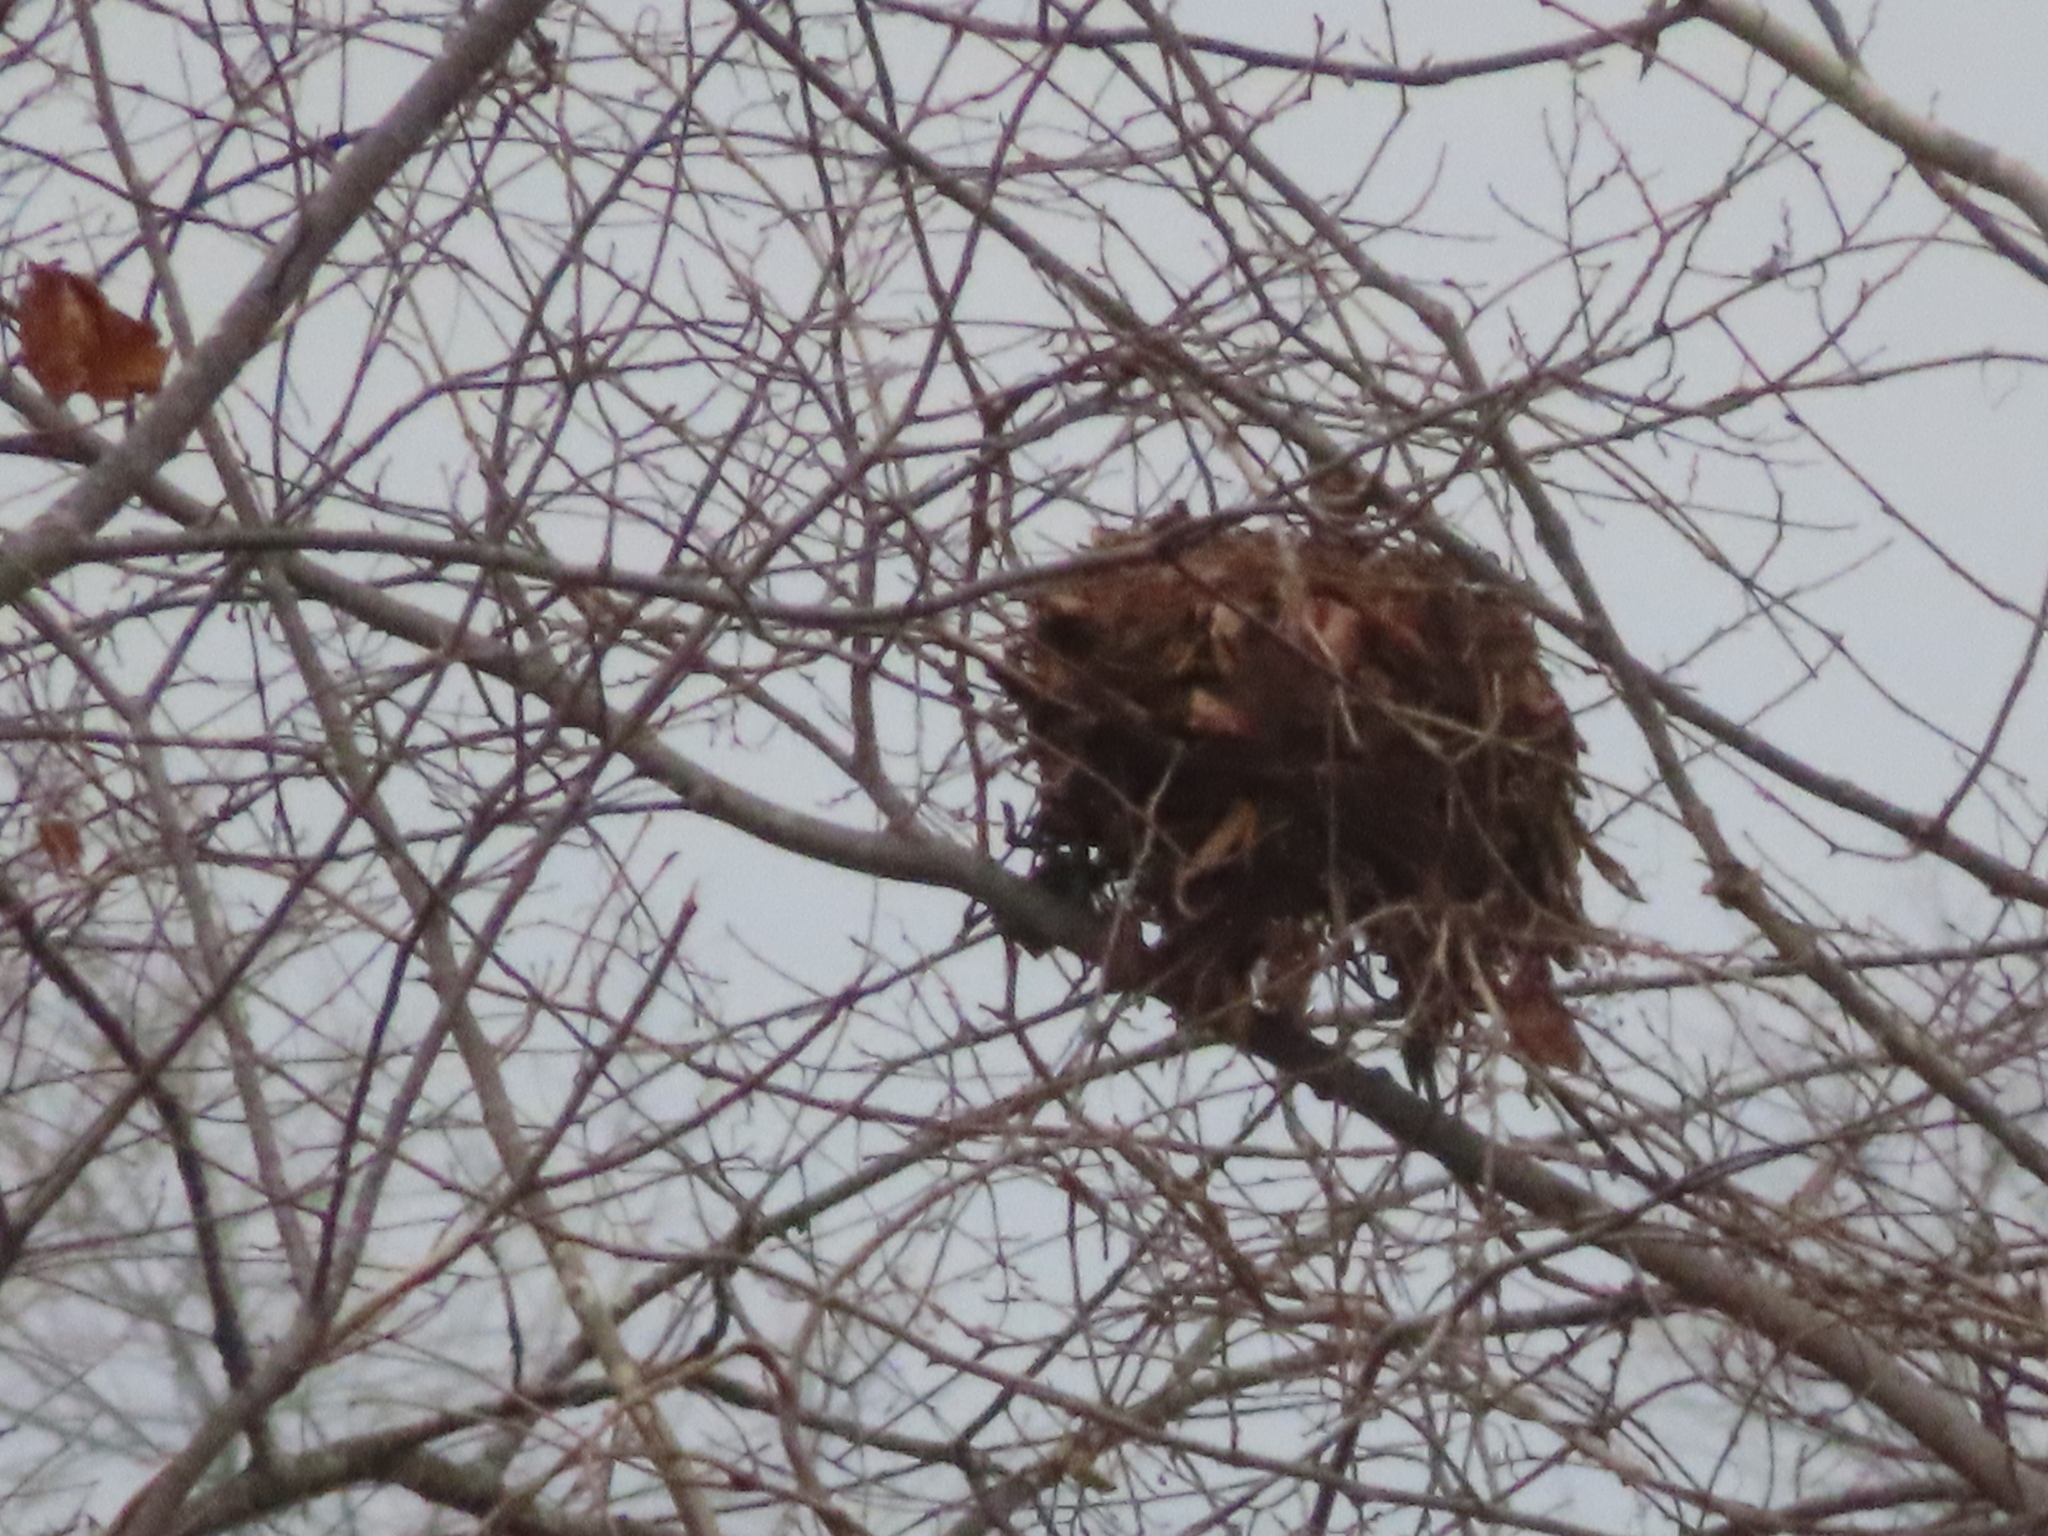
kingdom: Animalia
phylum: Chordata
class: Mammalia
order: Rodentia
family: Sciuridae
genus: Sciurus
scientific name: Sciurus carolinensis
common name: Eastern gray squirrel
